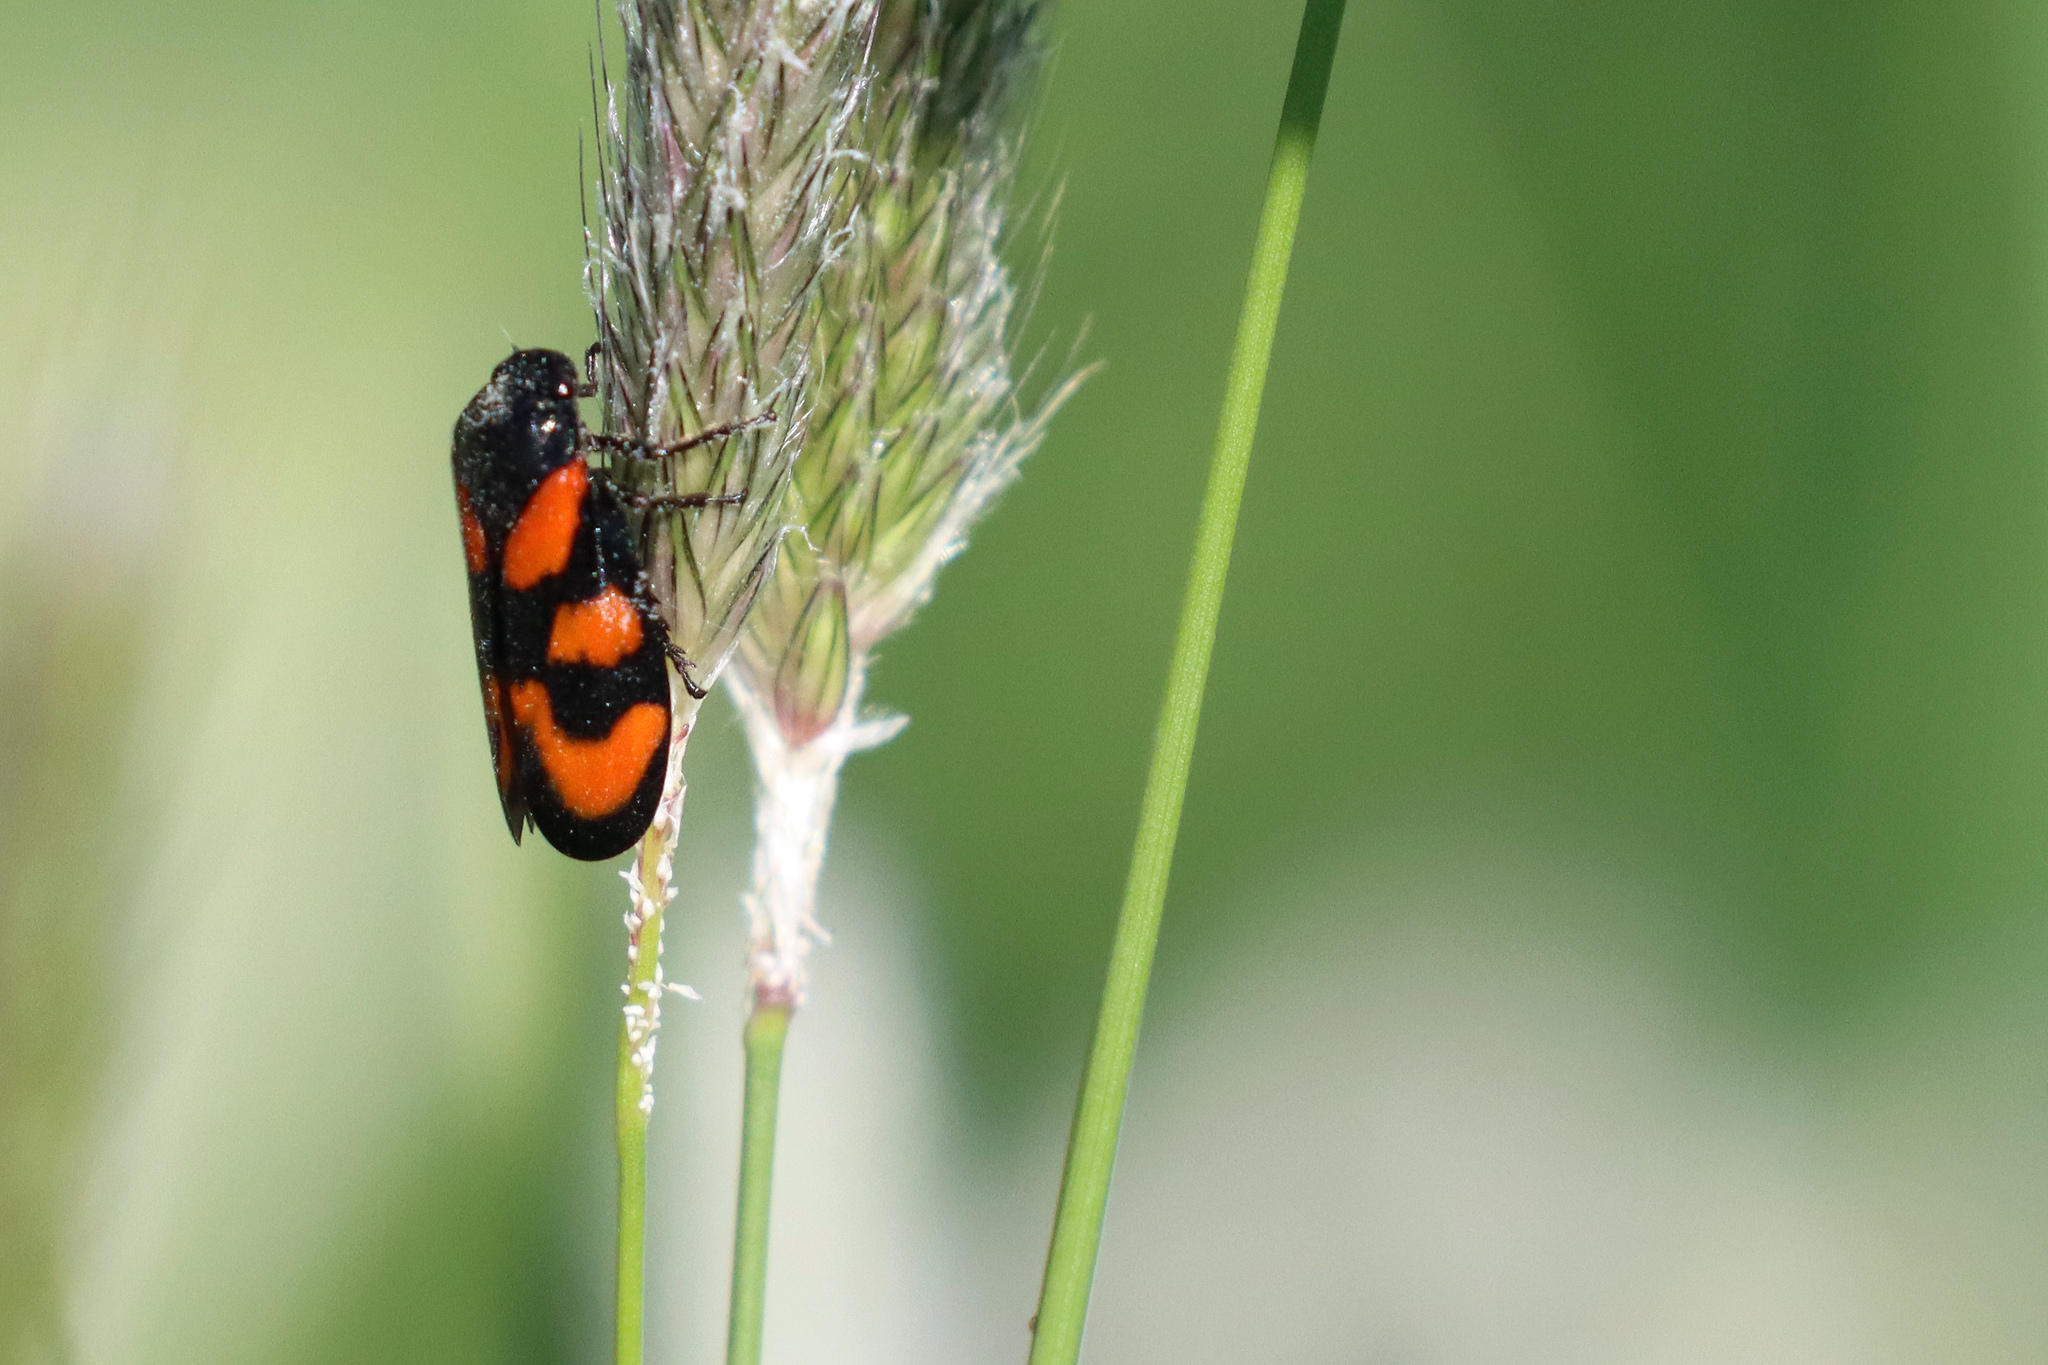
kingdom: Animalia
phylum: Arthropoda
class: Insecta
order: Hemiptera
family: Cercopidae
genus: Cercopis
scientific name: Cercopis vulnerata
